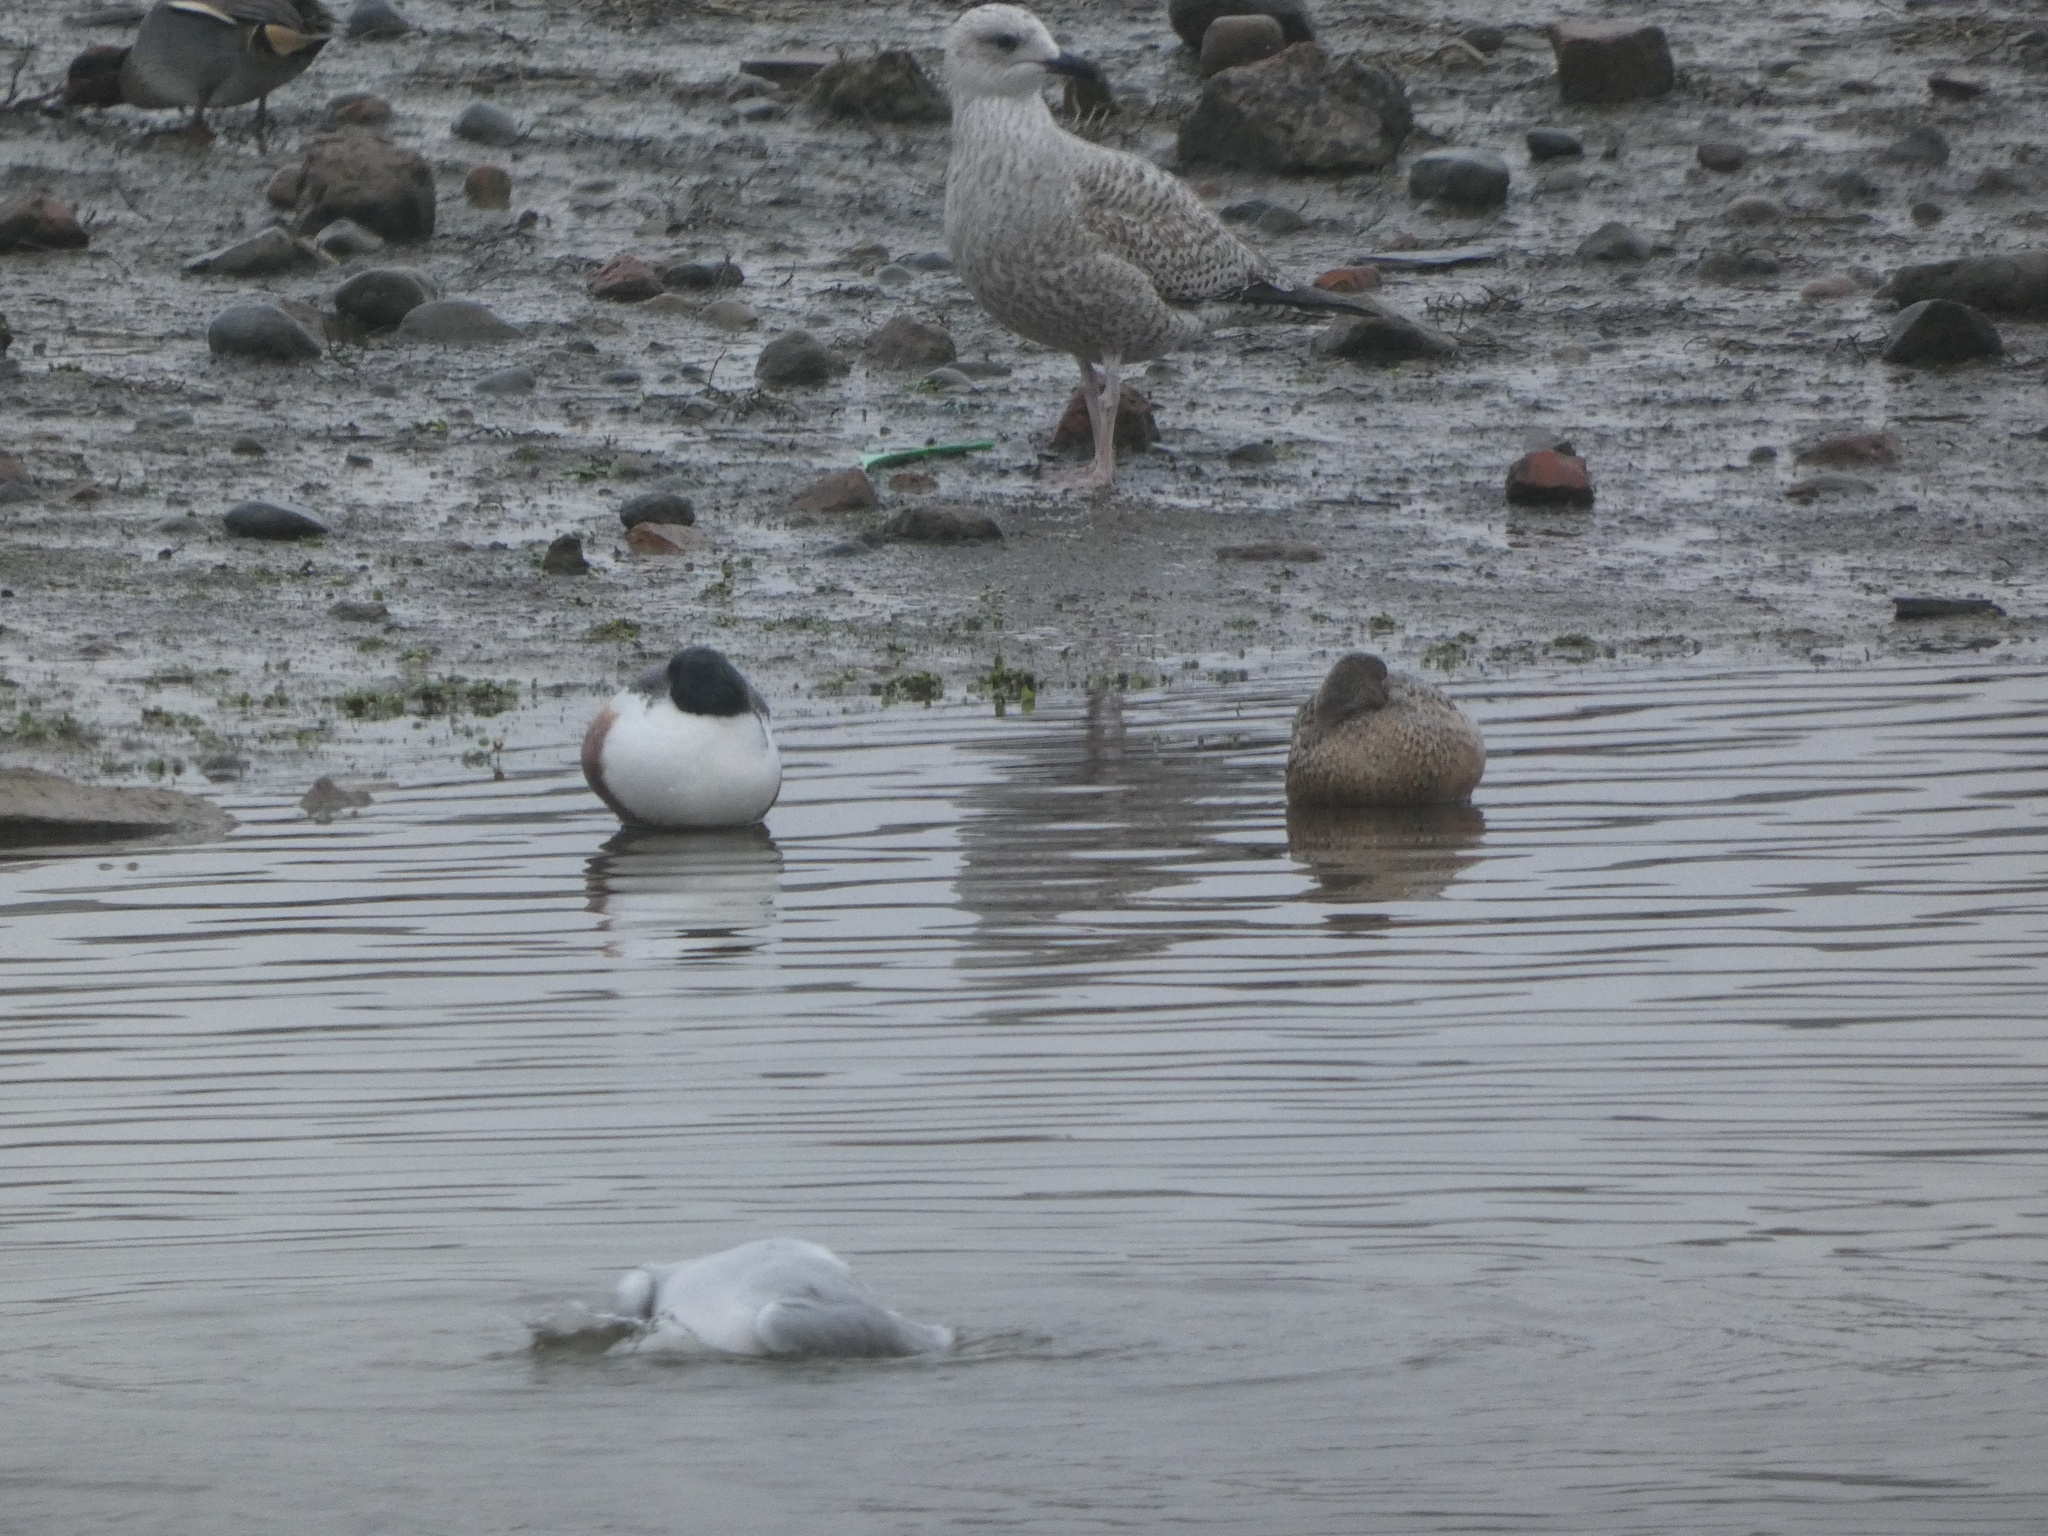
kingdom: Animalia
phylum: Chordata
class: Aves
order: Anseriformes
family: Anatidae
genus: Spatula
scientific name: Spatula clypeata
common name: Northern shoveler
